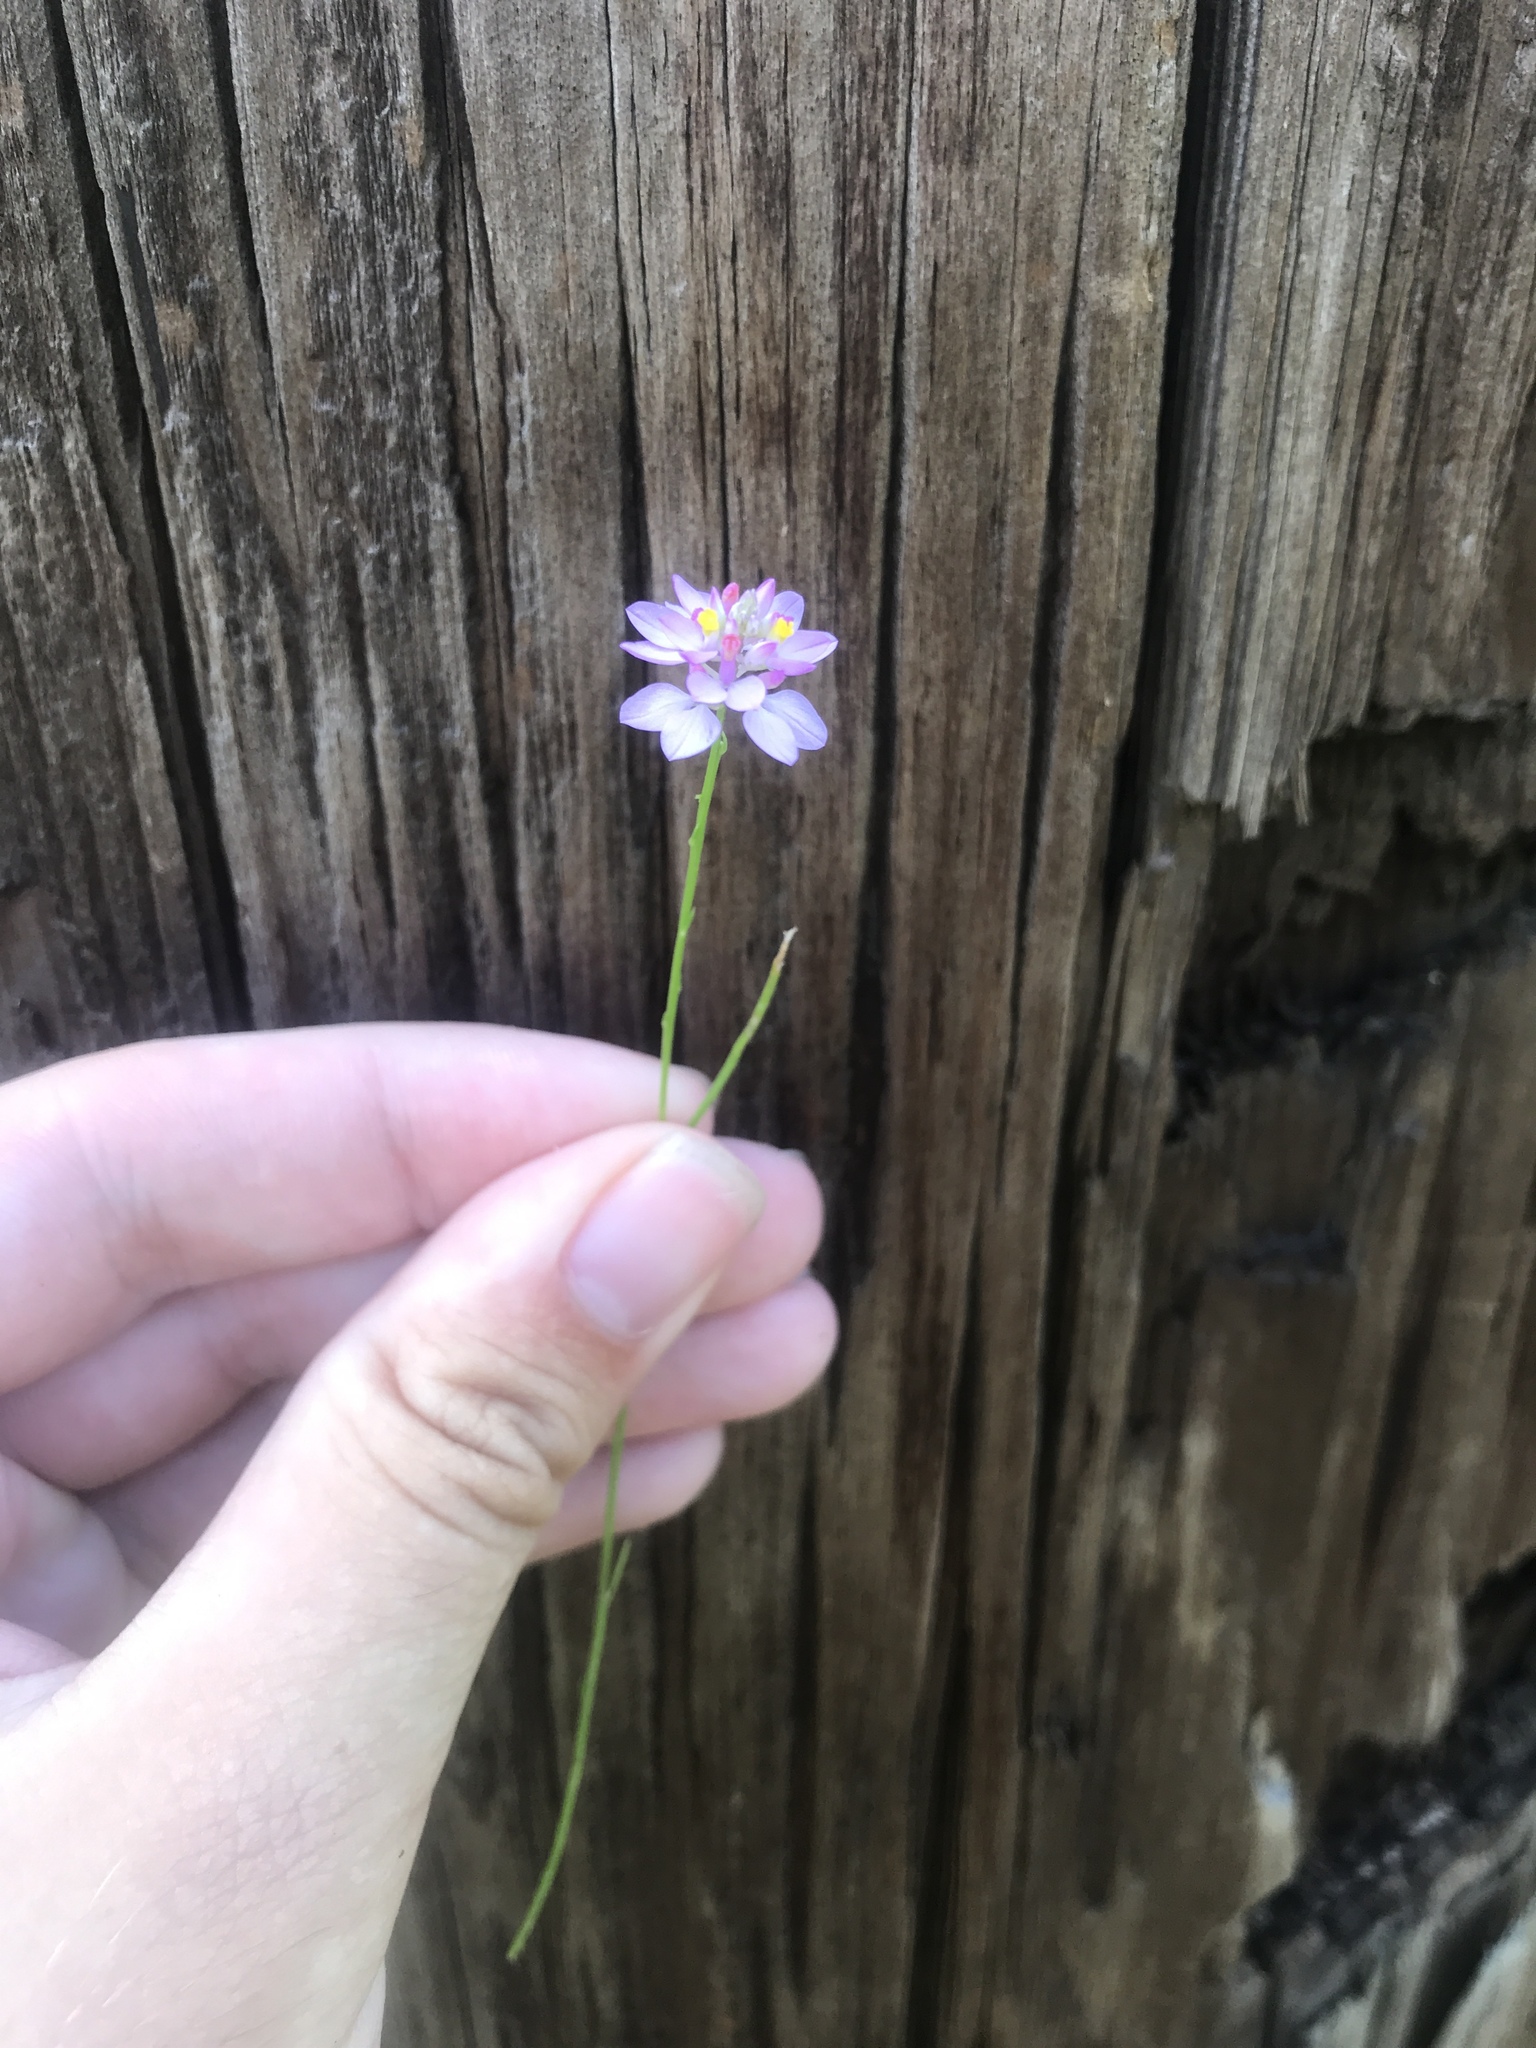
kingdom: Plantae
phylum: Tracheophyta
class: Magnoliopsida
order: Fabales
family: Polygalaceae
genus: Polygala
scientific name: Polygala mariana
